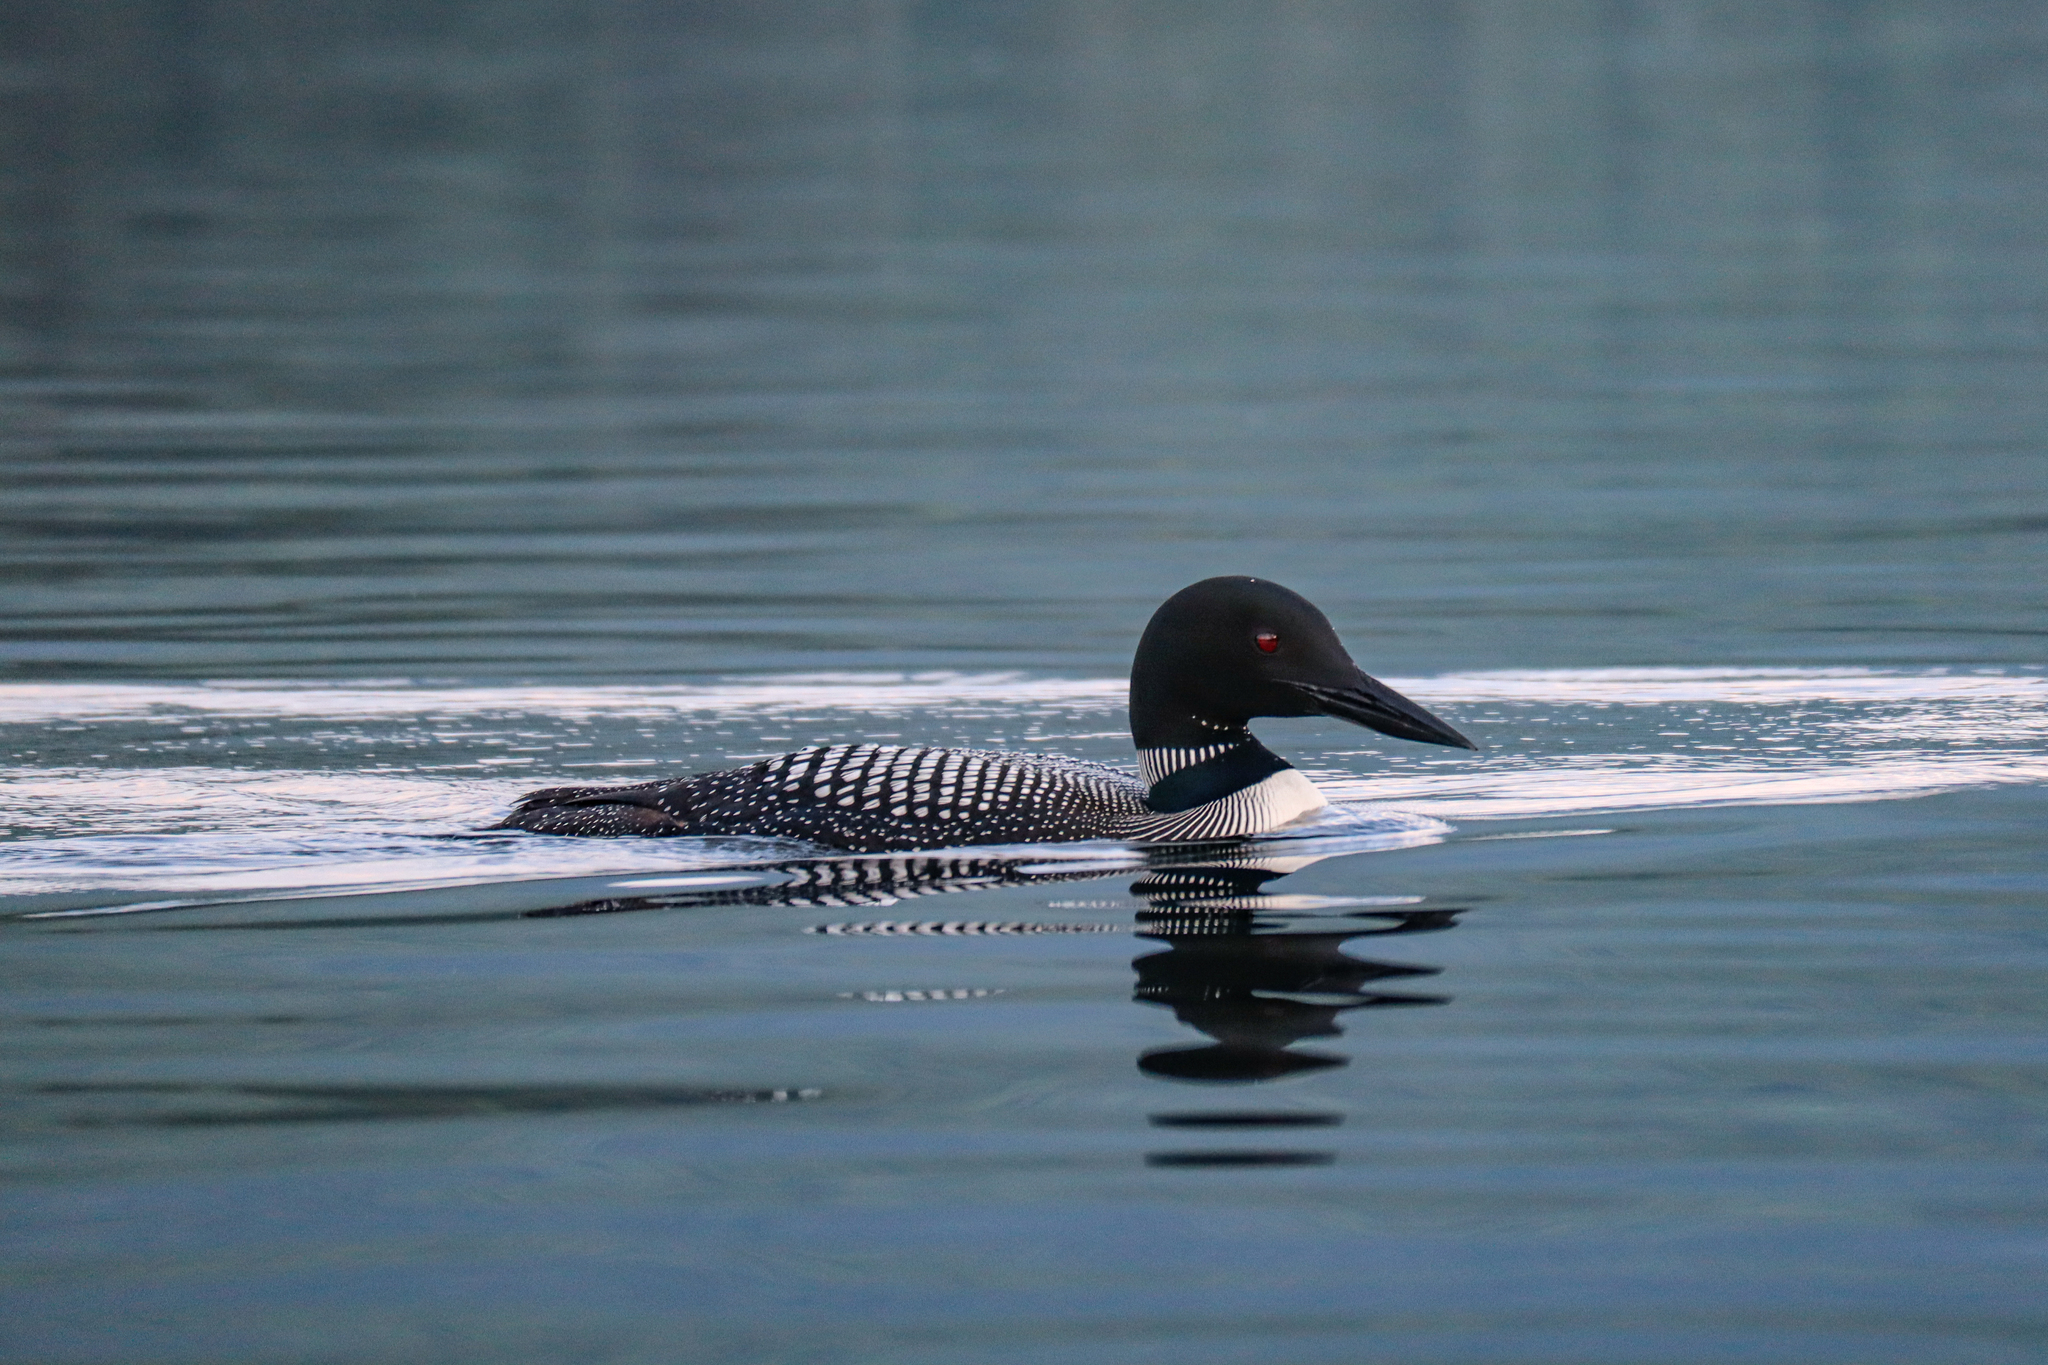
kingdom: Animalia
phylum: Chordata
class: Aves
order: Gaviiformes
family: Gaviidae
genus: Gavia
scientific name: Gavia immer
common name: Common loon
